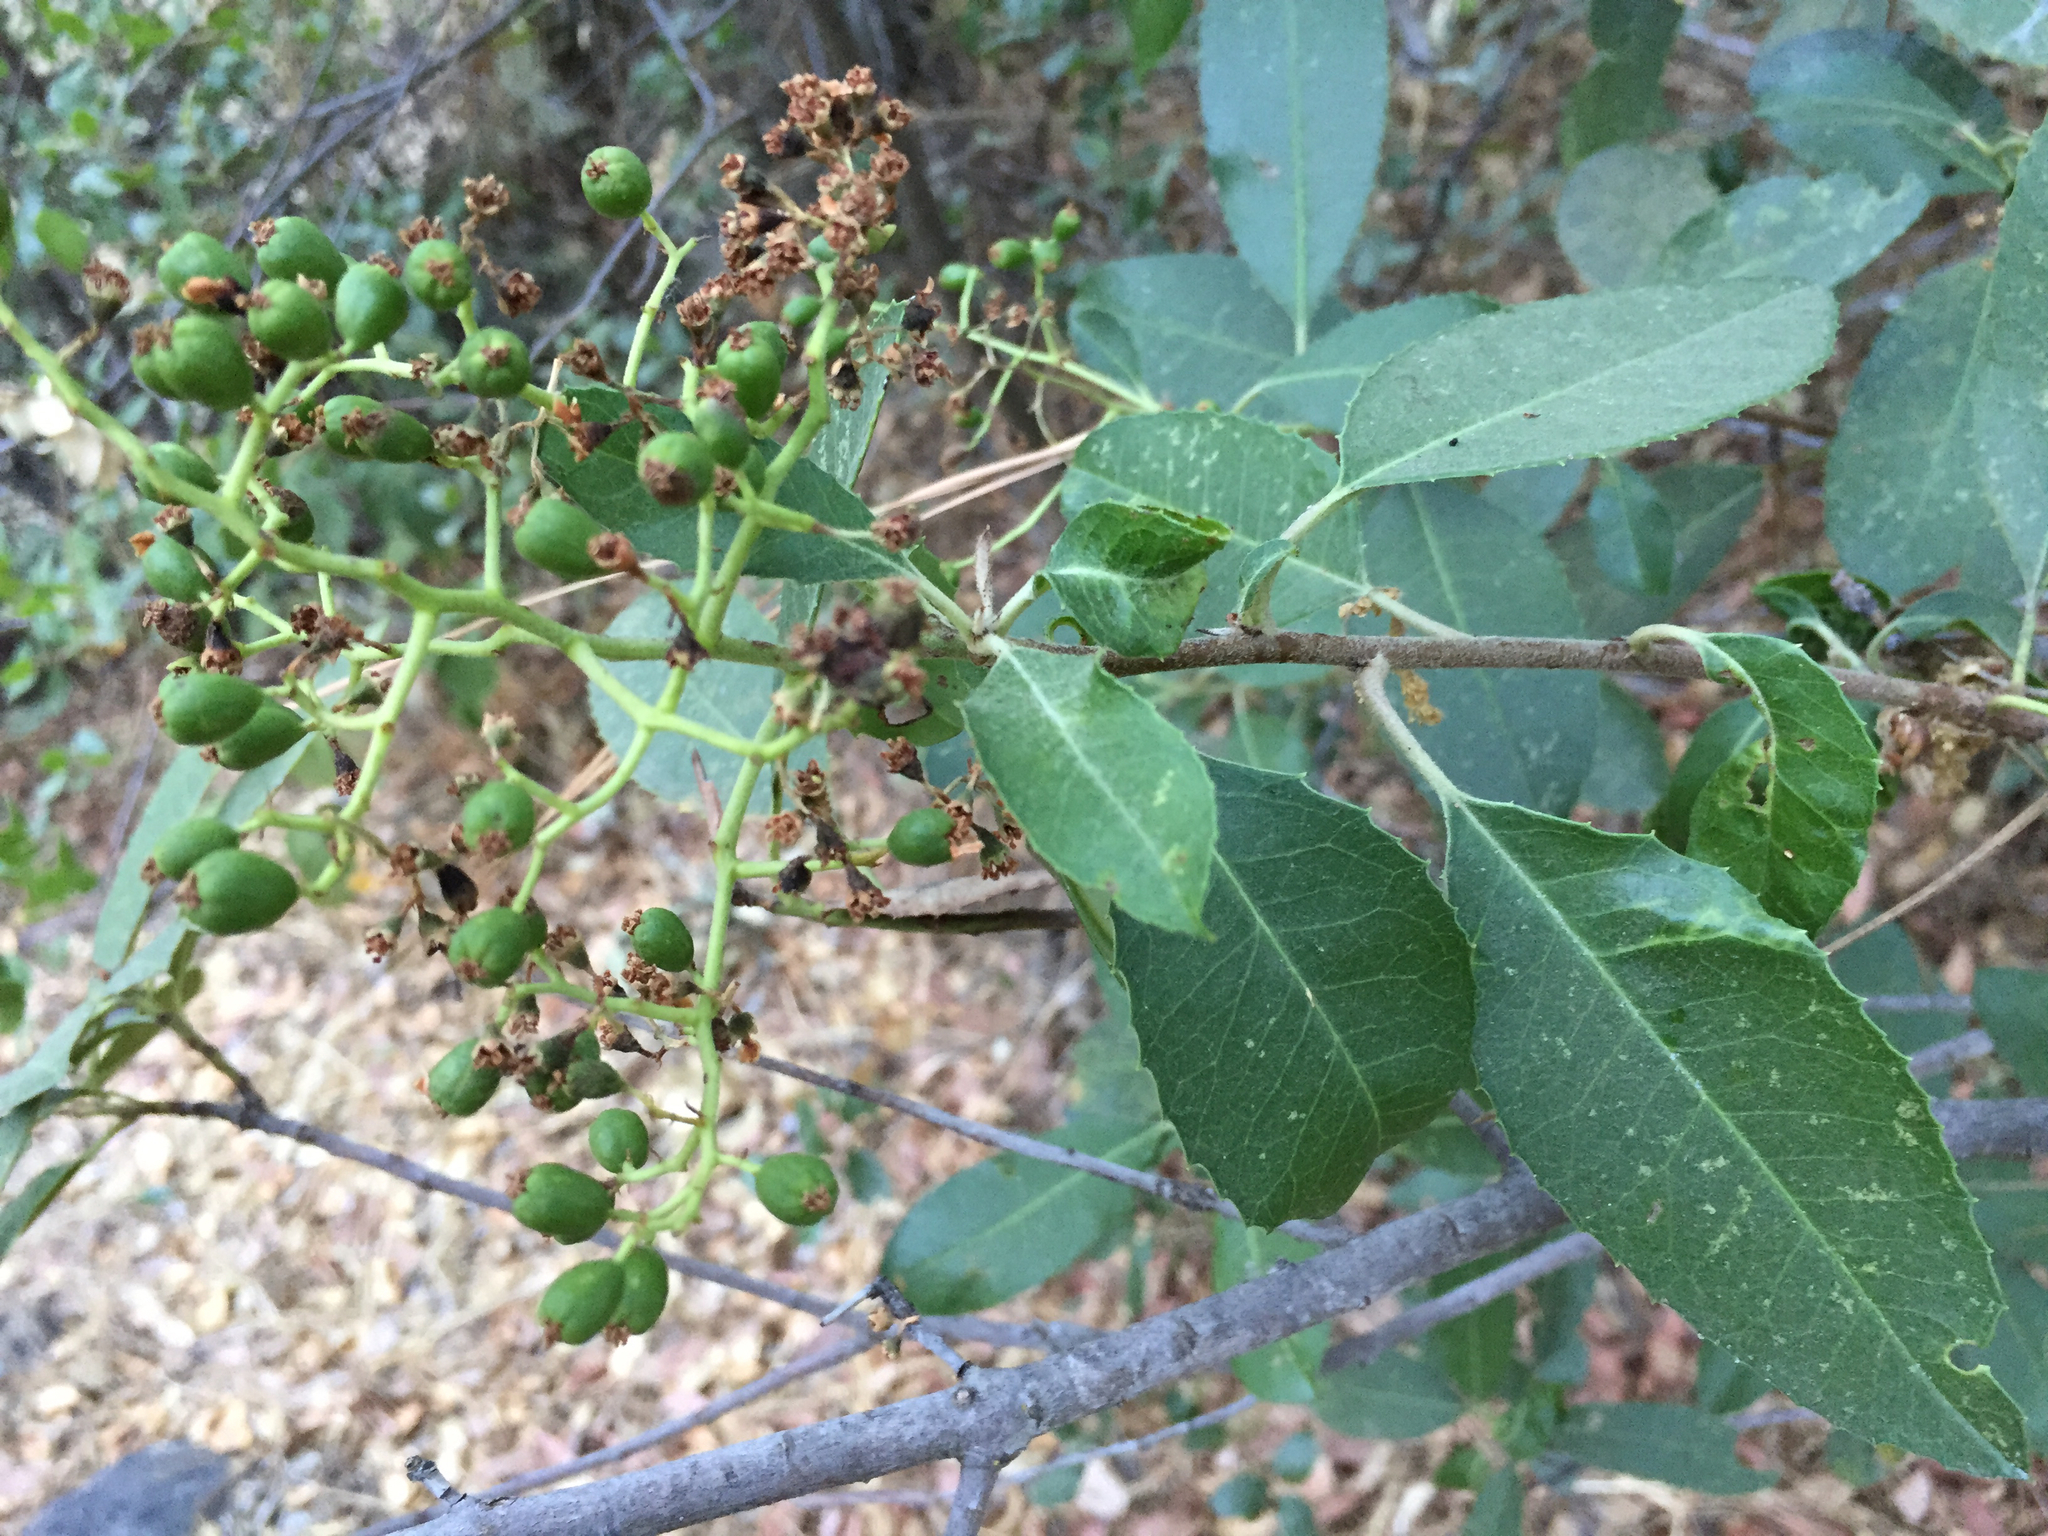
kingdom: Plantae
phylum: Tracheophyta
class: Magnoliopsida
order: Rosales
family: Rosaceae
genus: Heteromeles
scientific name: Heteromeles arbutifolia
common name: California-holly
